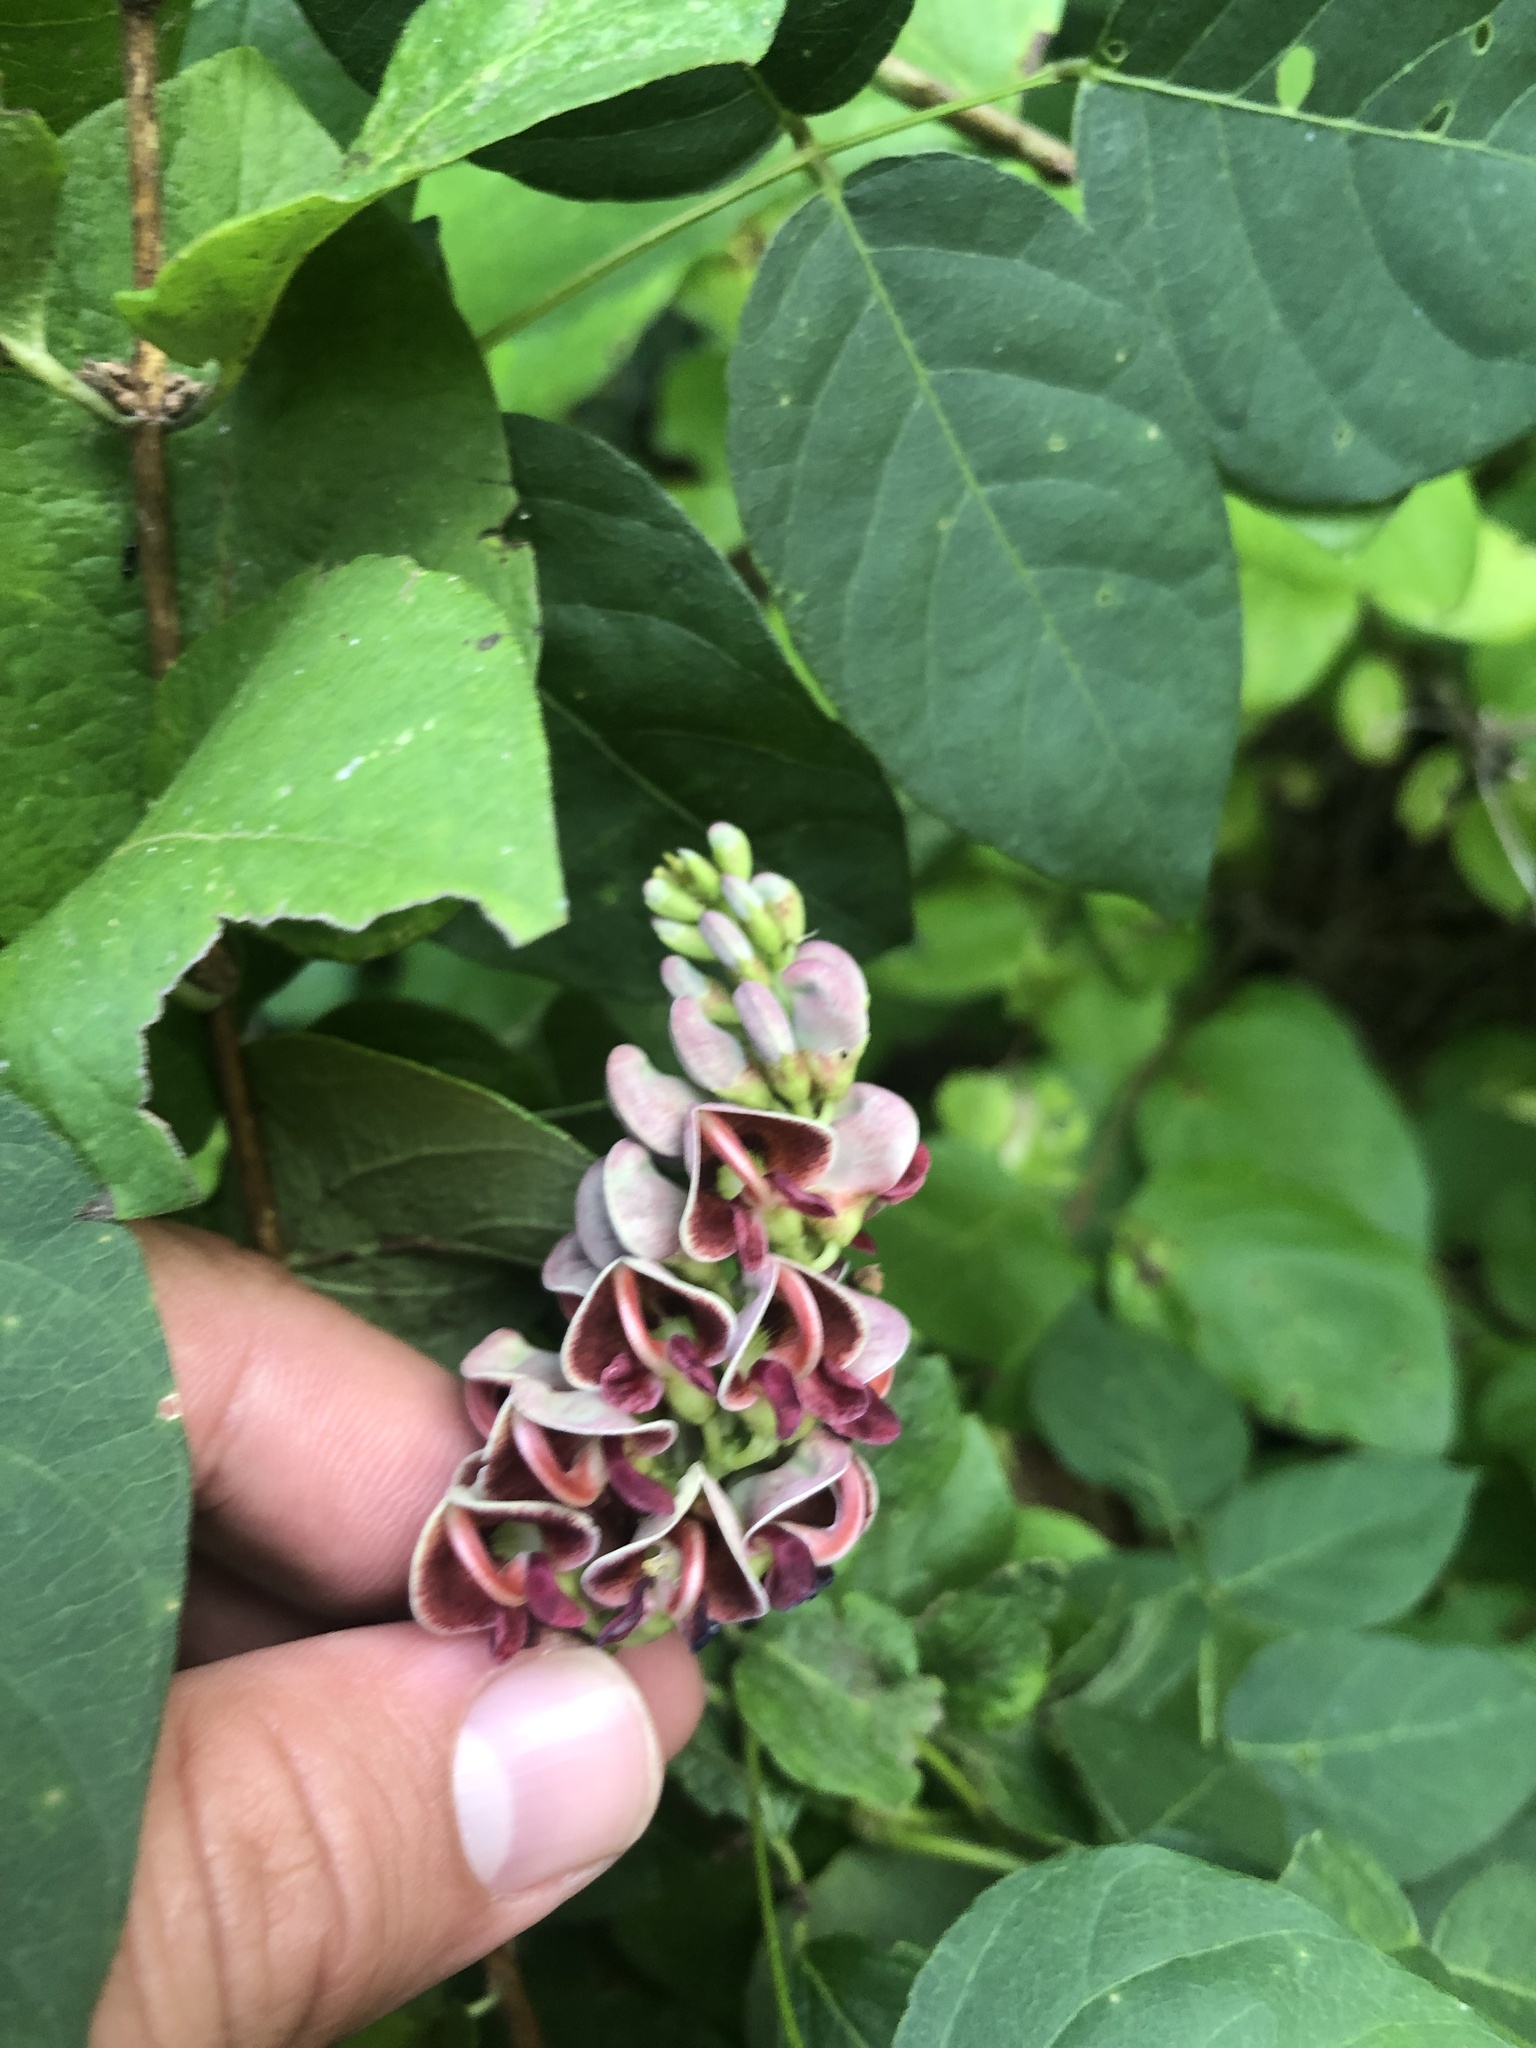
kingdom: Plantae
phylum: Tracheophyta
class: Magnoliopsida
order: Fabales
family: Fabaceae
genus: Apios
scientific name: Apios americana
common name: American potato-bean
